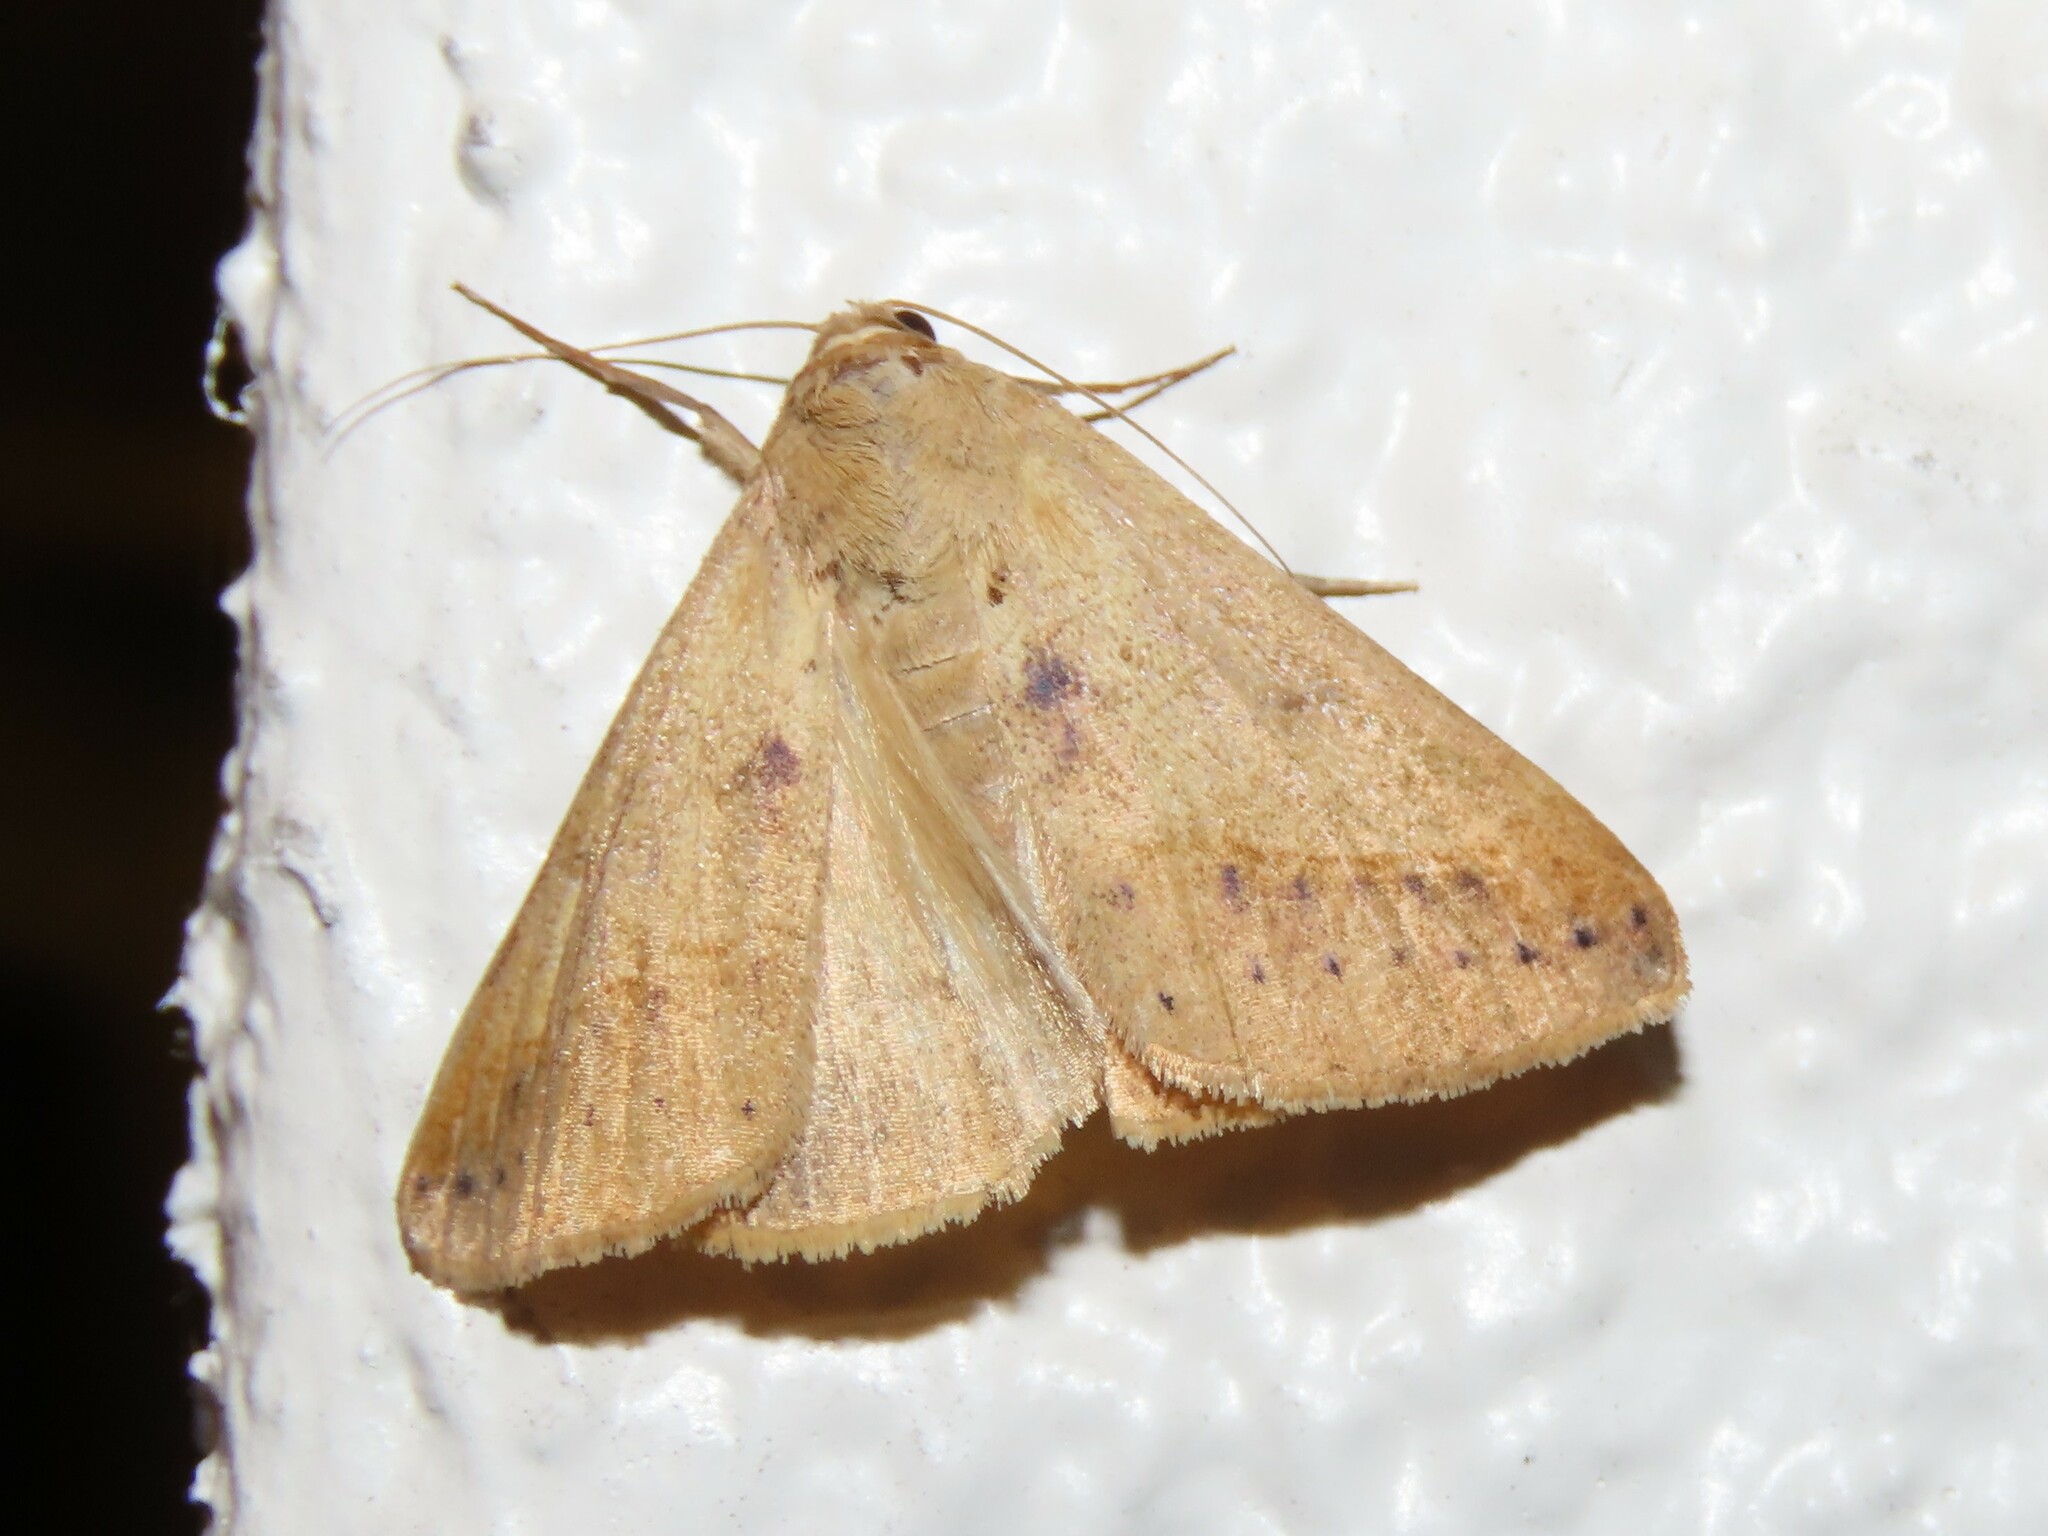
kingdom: Animalia
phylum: Arthropoda
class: Insecta
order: Lepidoptera
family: Erebidae
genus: Mocis
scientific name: Mocis disseverans
